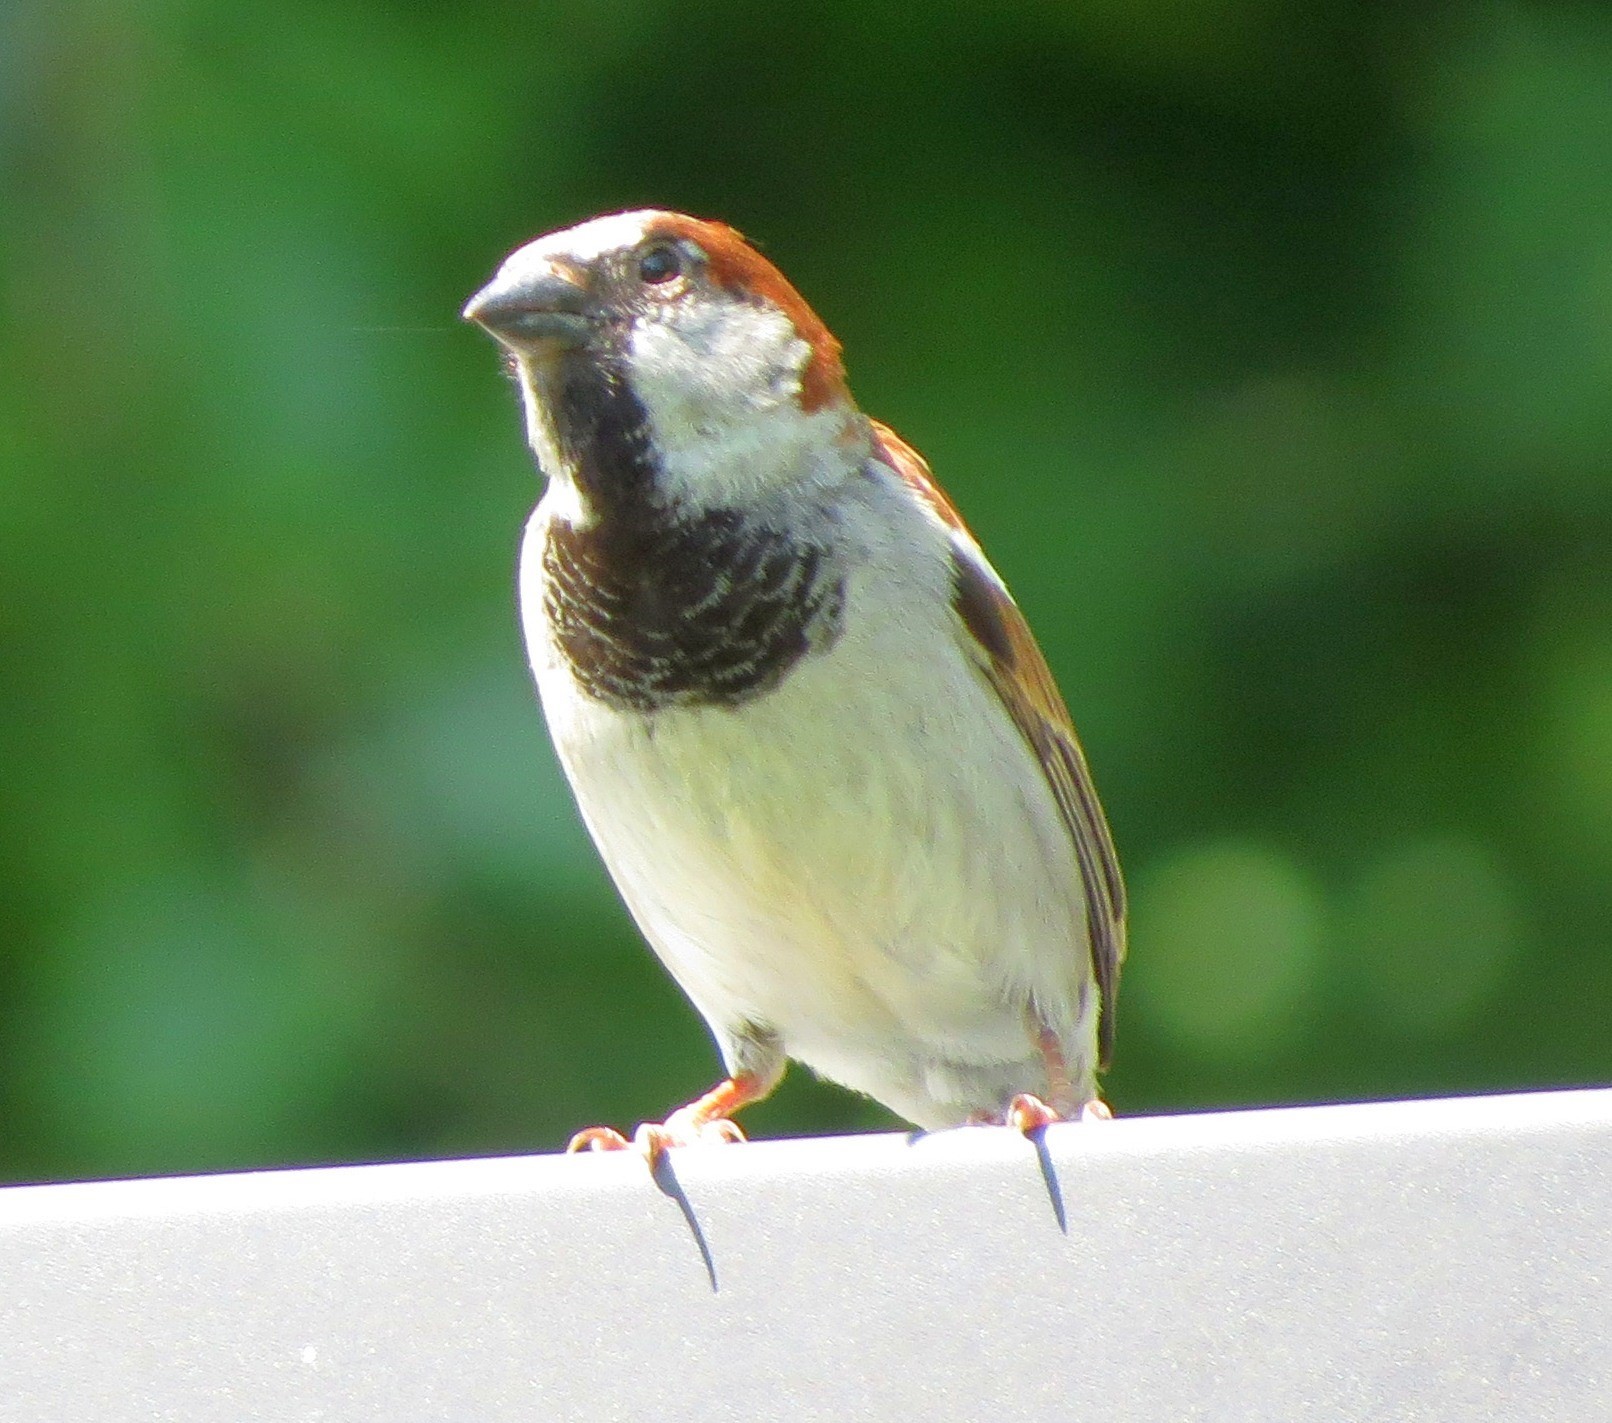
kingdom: Animalia
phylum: Chordata
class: Aves
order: Passeriformes
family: Passeridae
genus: Passer
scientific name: Passer domesticus
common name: House sparrow
